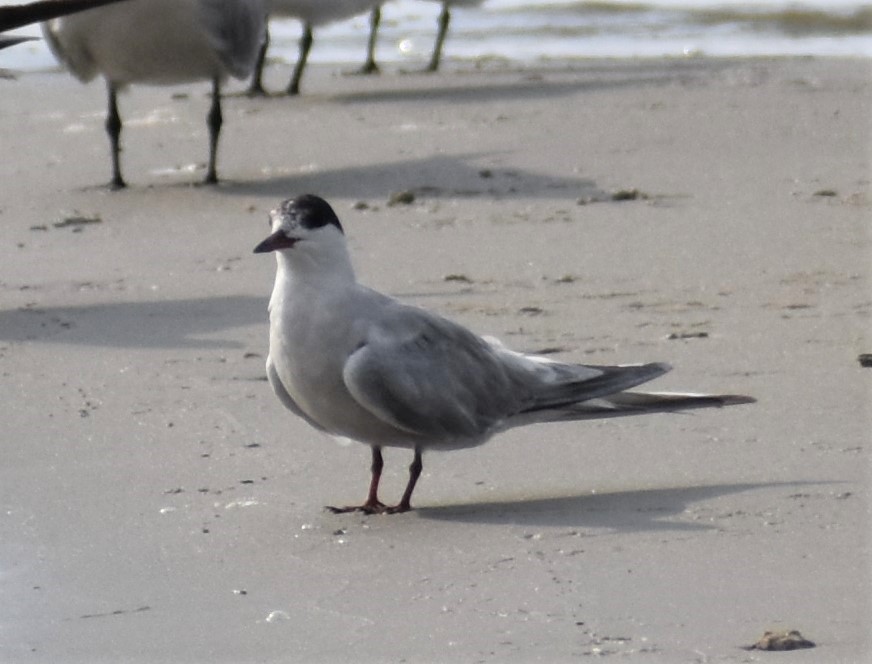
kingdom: Animalia
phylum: Chordata
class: Aves
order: Charadriiformes
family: Laridae
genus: Sterna
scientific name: Sterna forsteri
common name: Forster's tern
